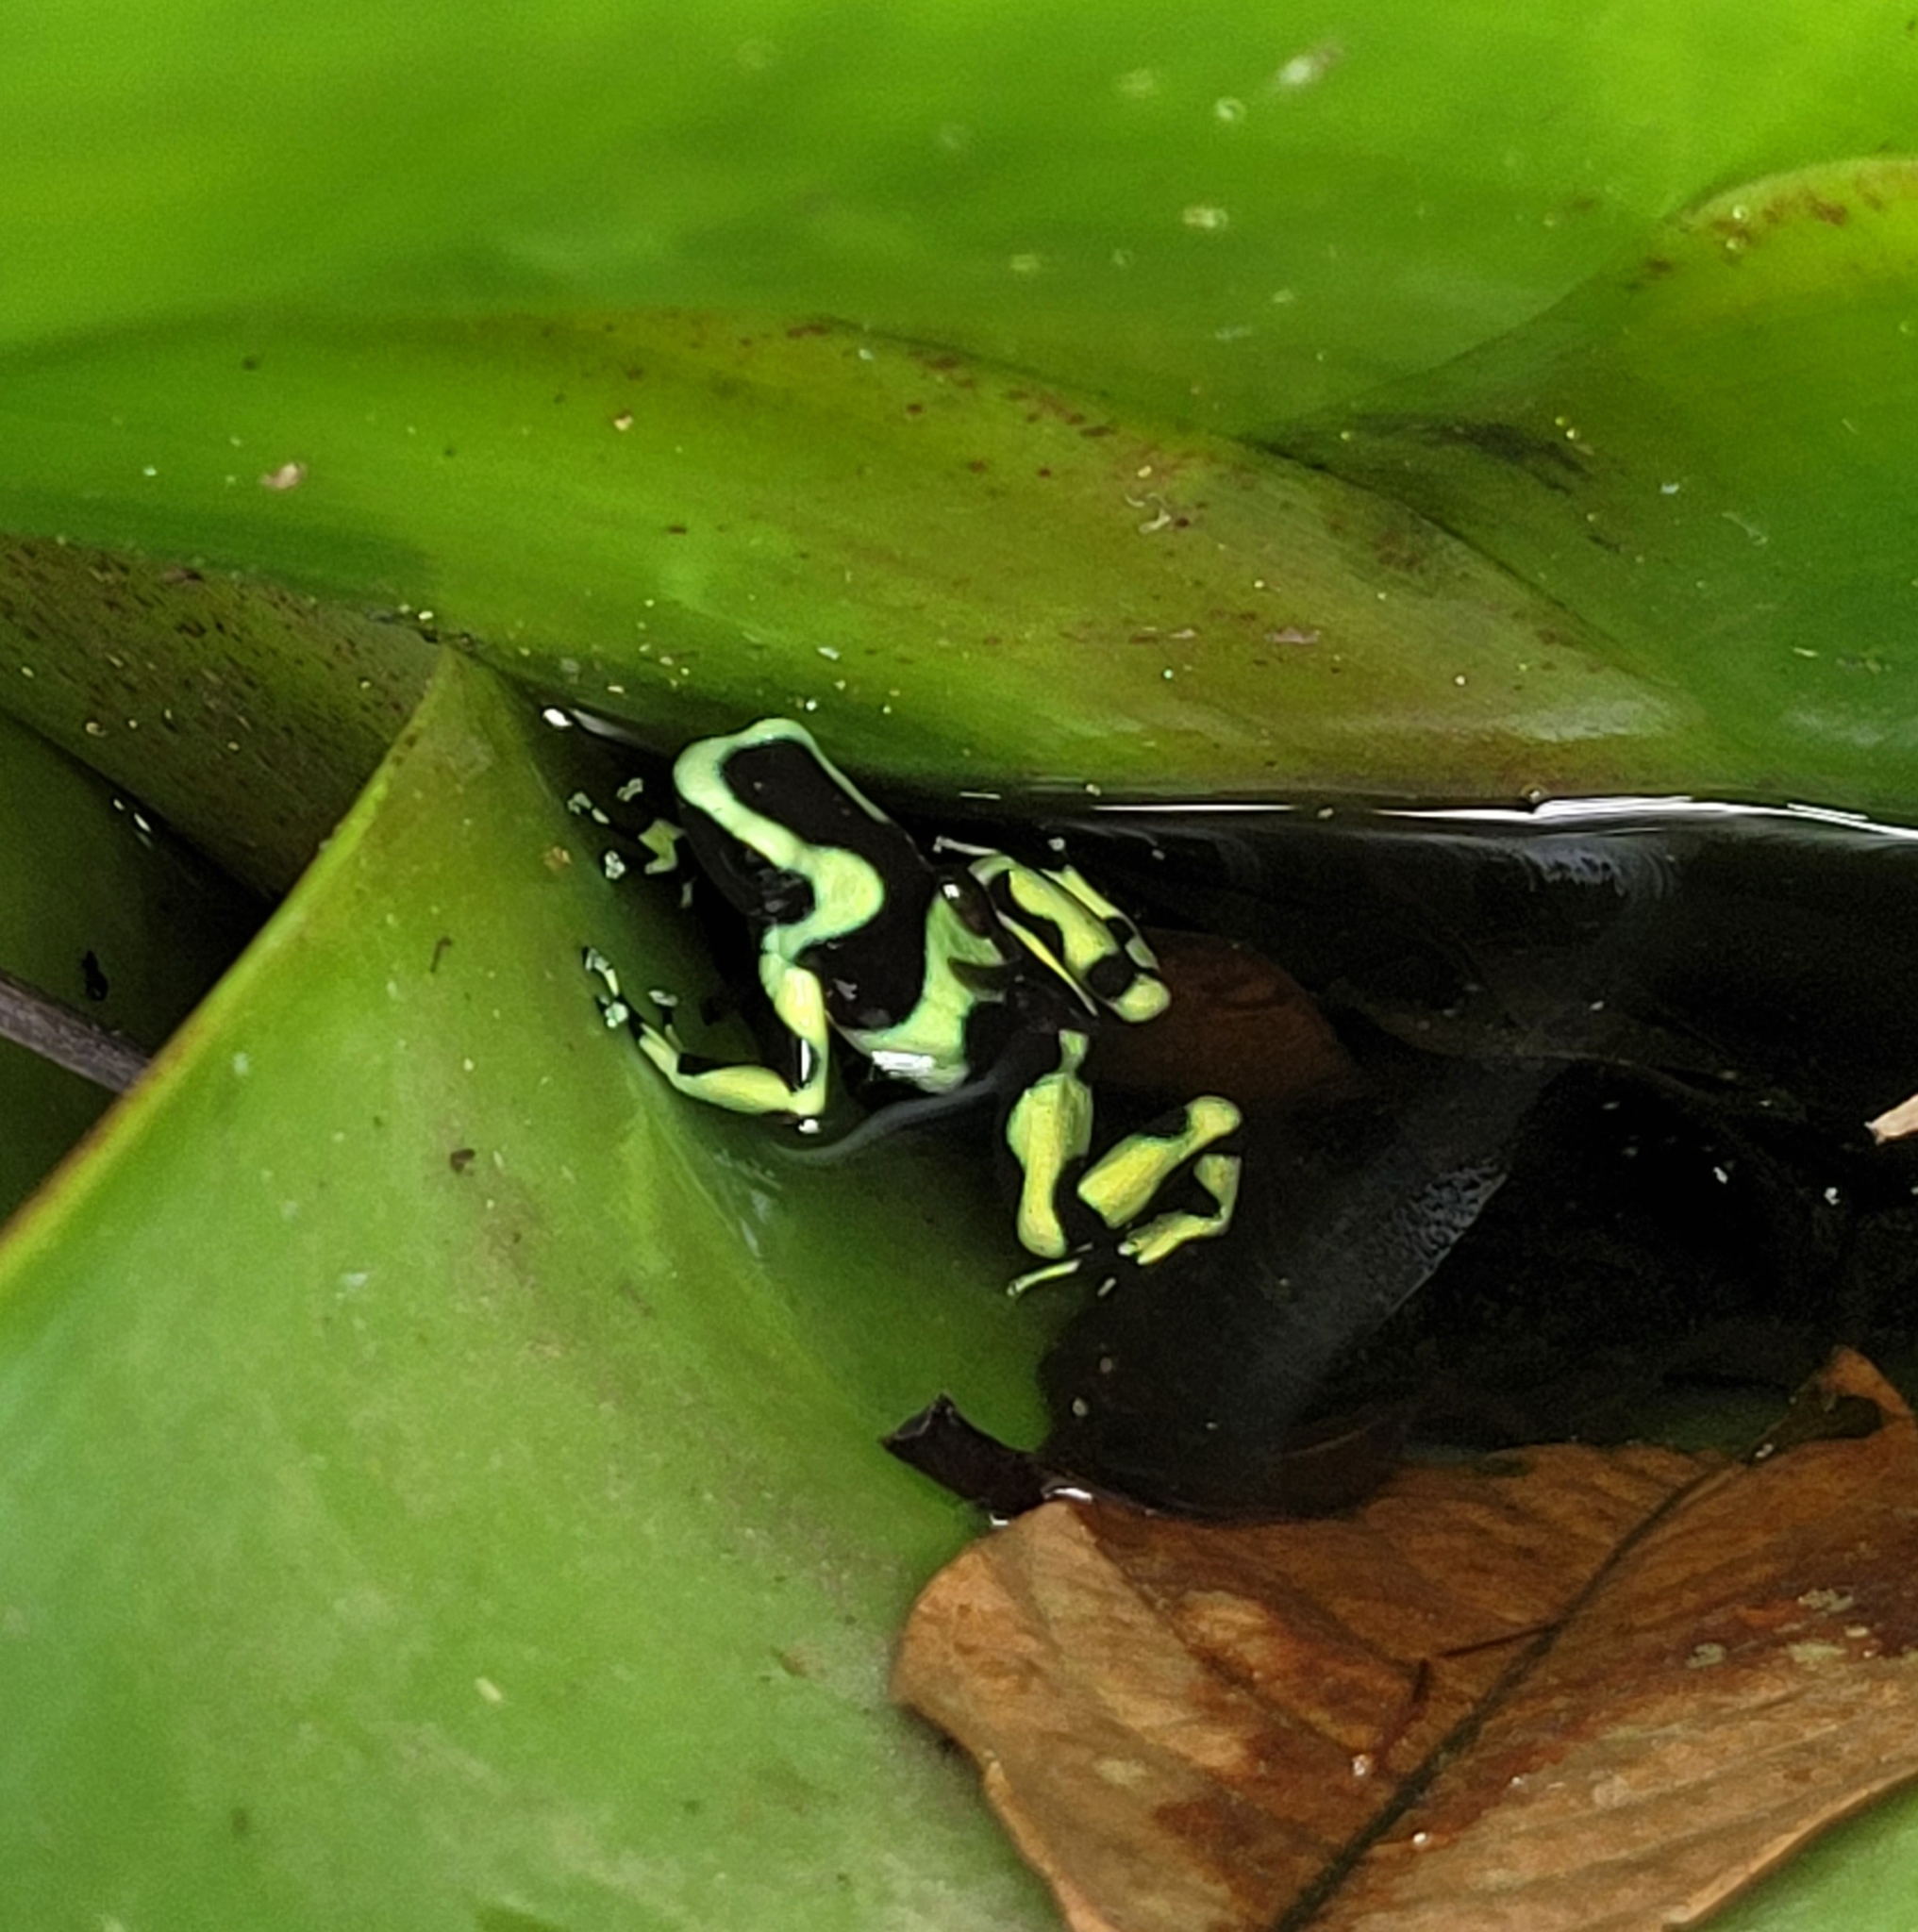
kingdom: Animalia
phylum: Chordata
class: Amphibia
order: Anura
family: Dendrobatidae
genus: Dendrobates
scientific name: Dendrobates auratus
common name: Green and black poison dart frog
